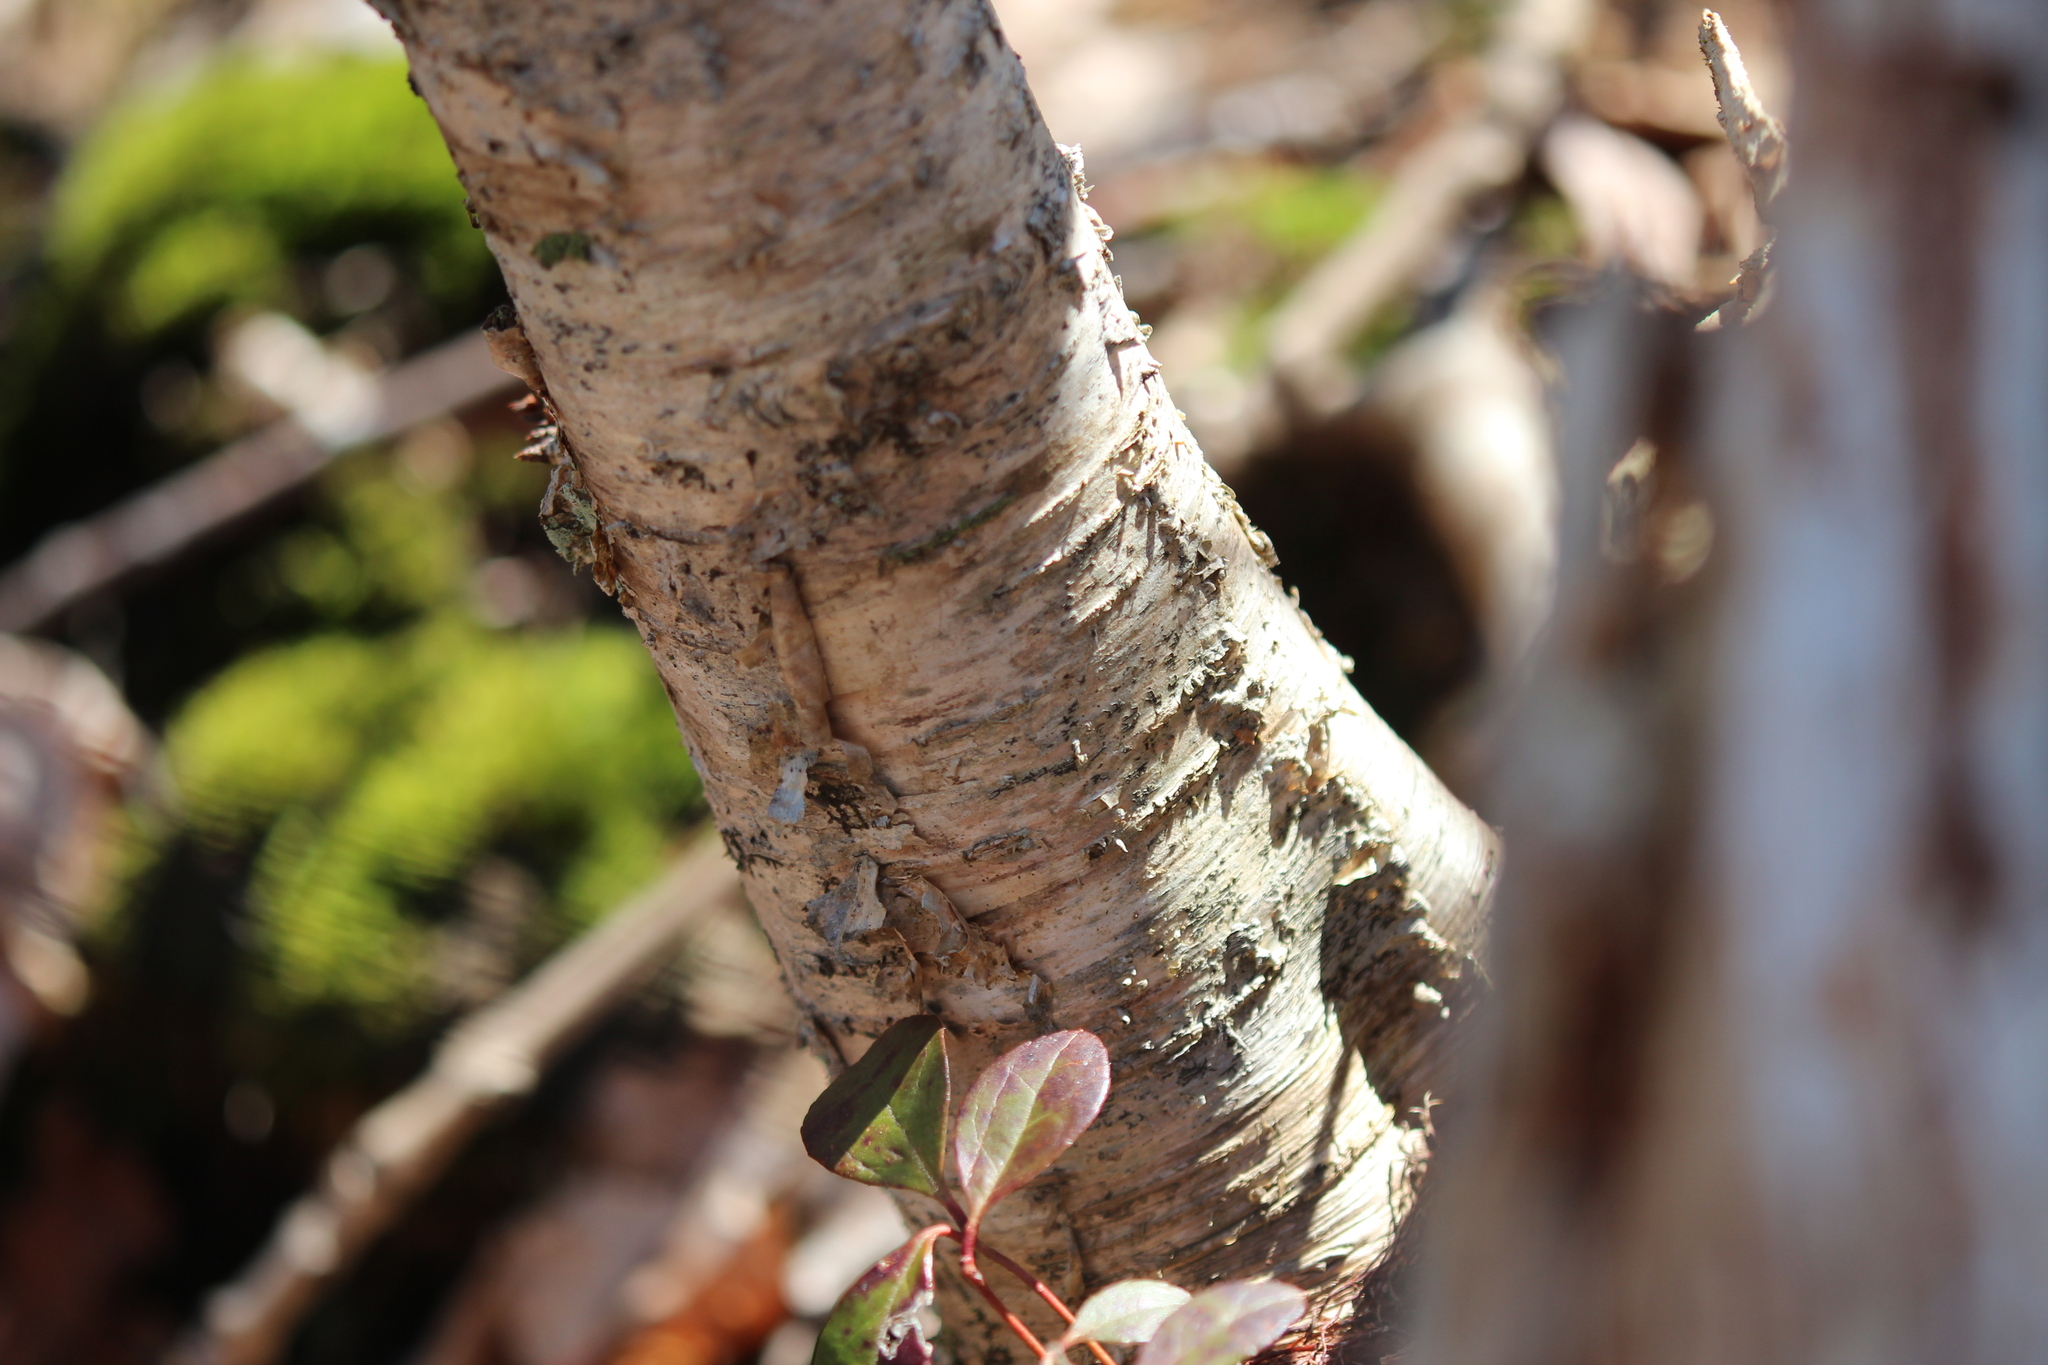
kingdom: Plantae
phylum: Tracheophyta
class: Magnoliopsida
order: Fagales
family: Betulaceae
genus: Betula
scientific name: Betula alleghaniensis
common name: Yellow birch
